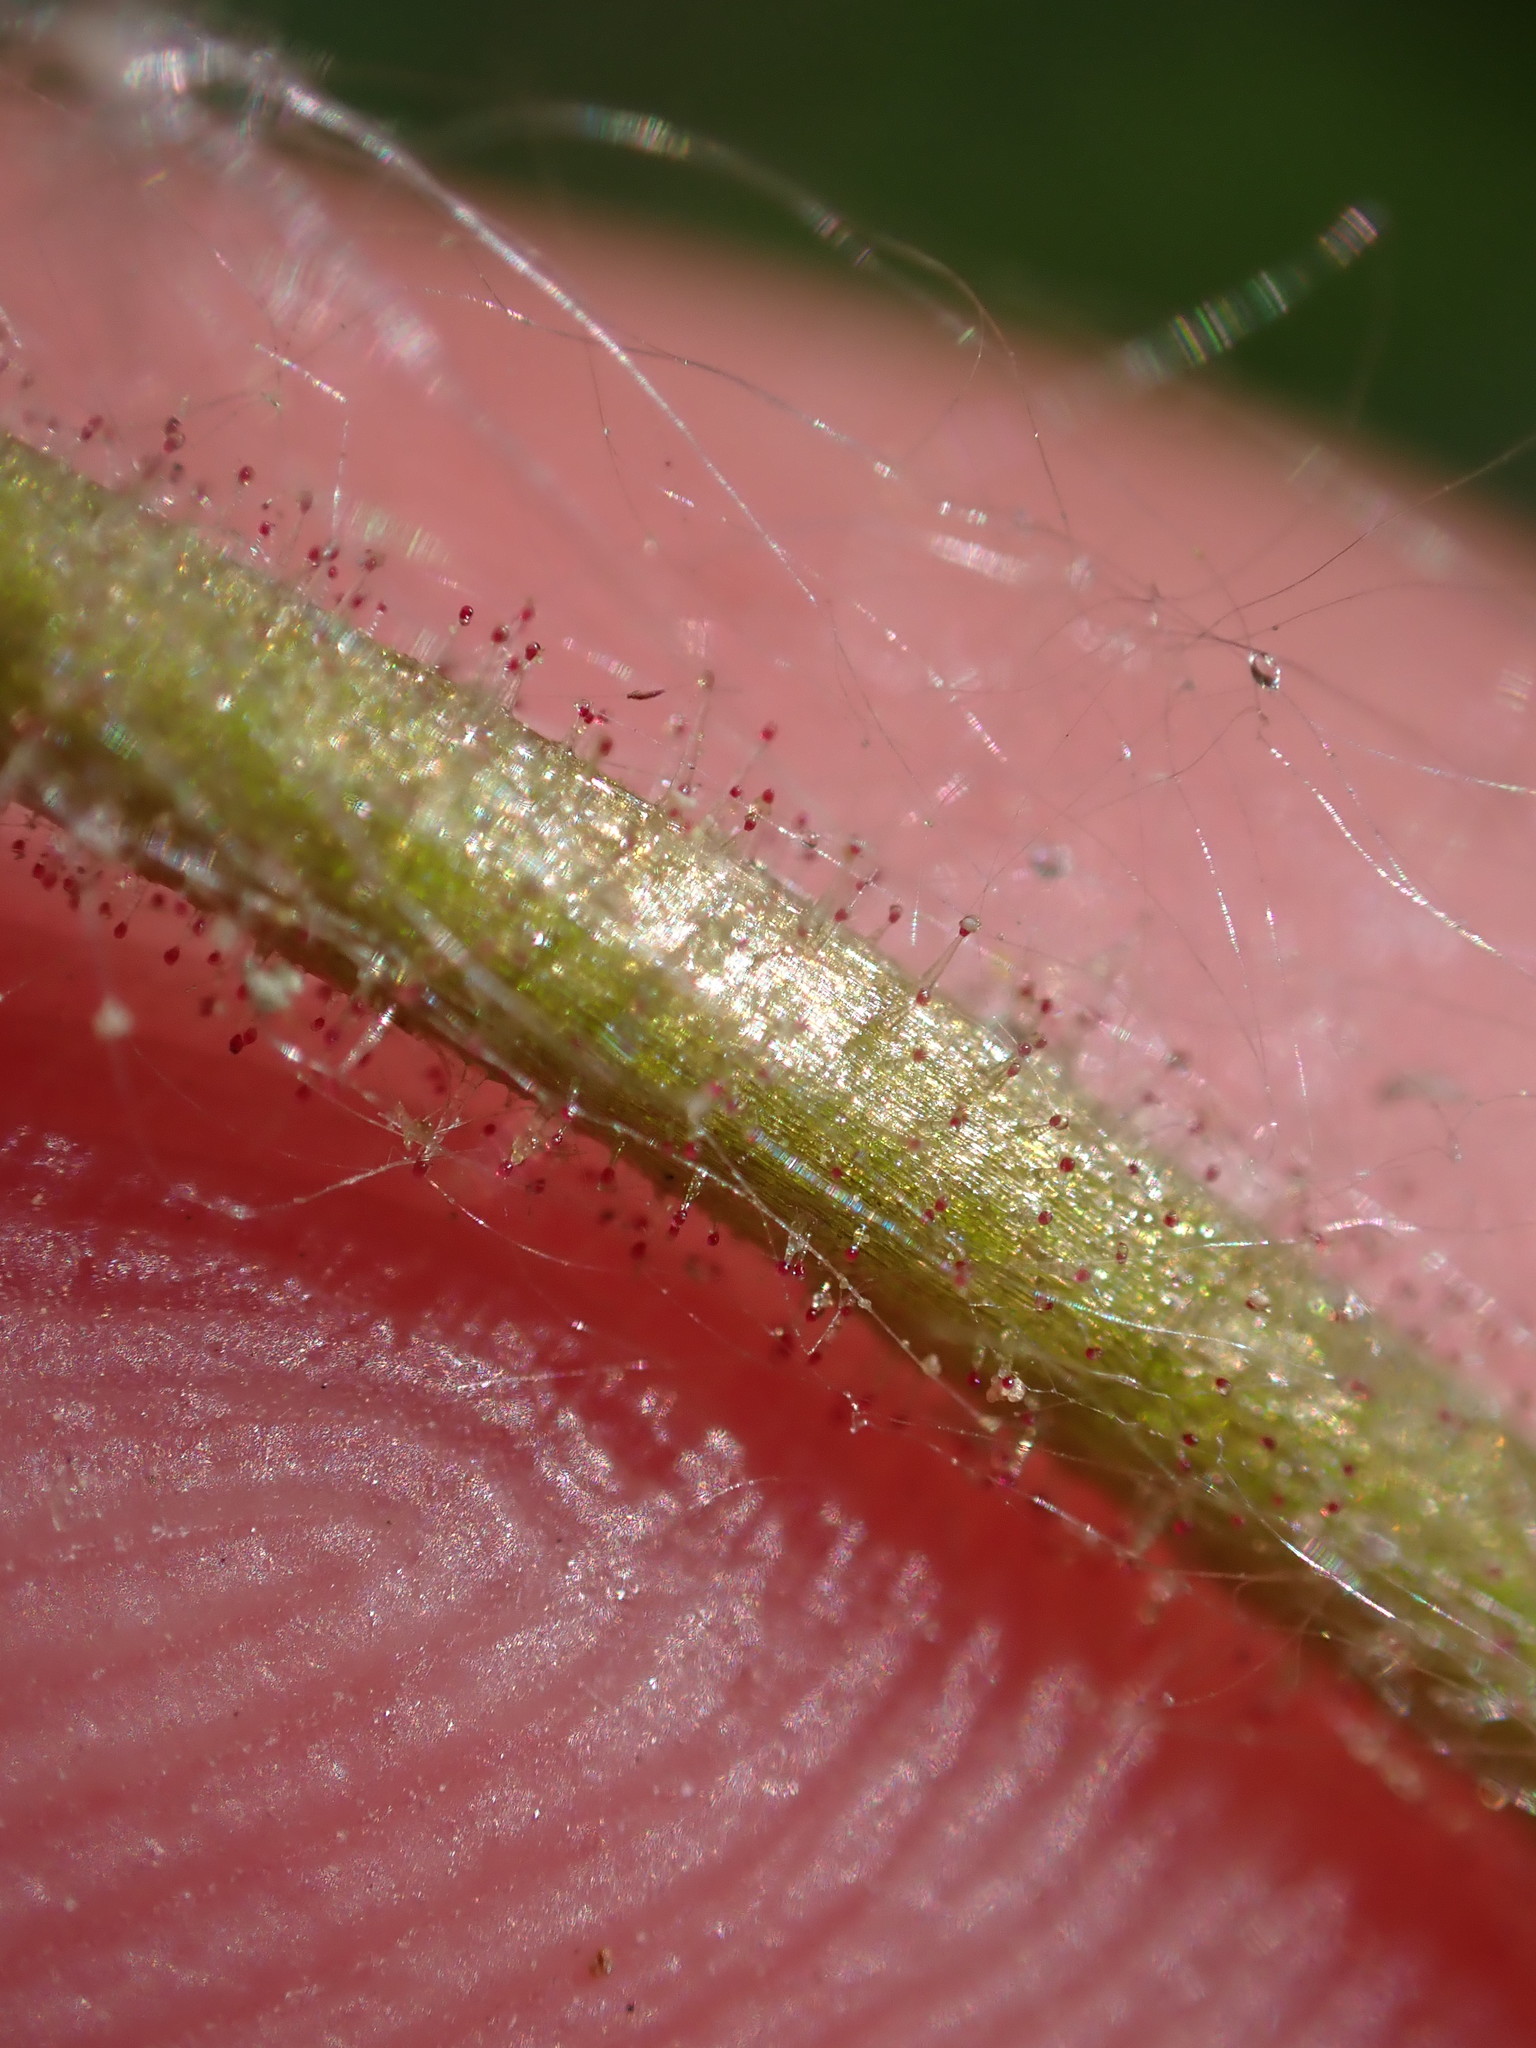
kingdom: Plantae
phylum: Tracheophyta
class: Magnoliopsida
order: Saxifragales
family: Saxifragaceae
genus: Saxifraga
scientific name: Saxifraga granulata
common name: Meadow saxifrage
